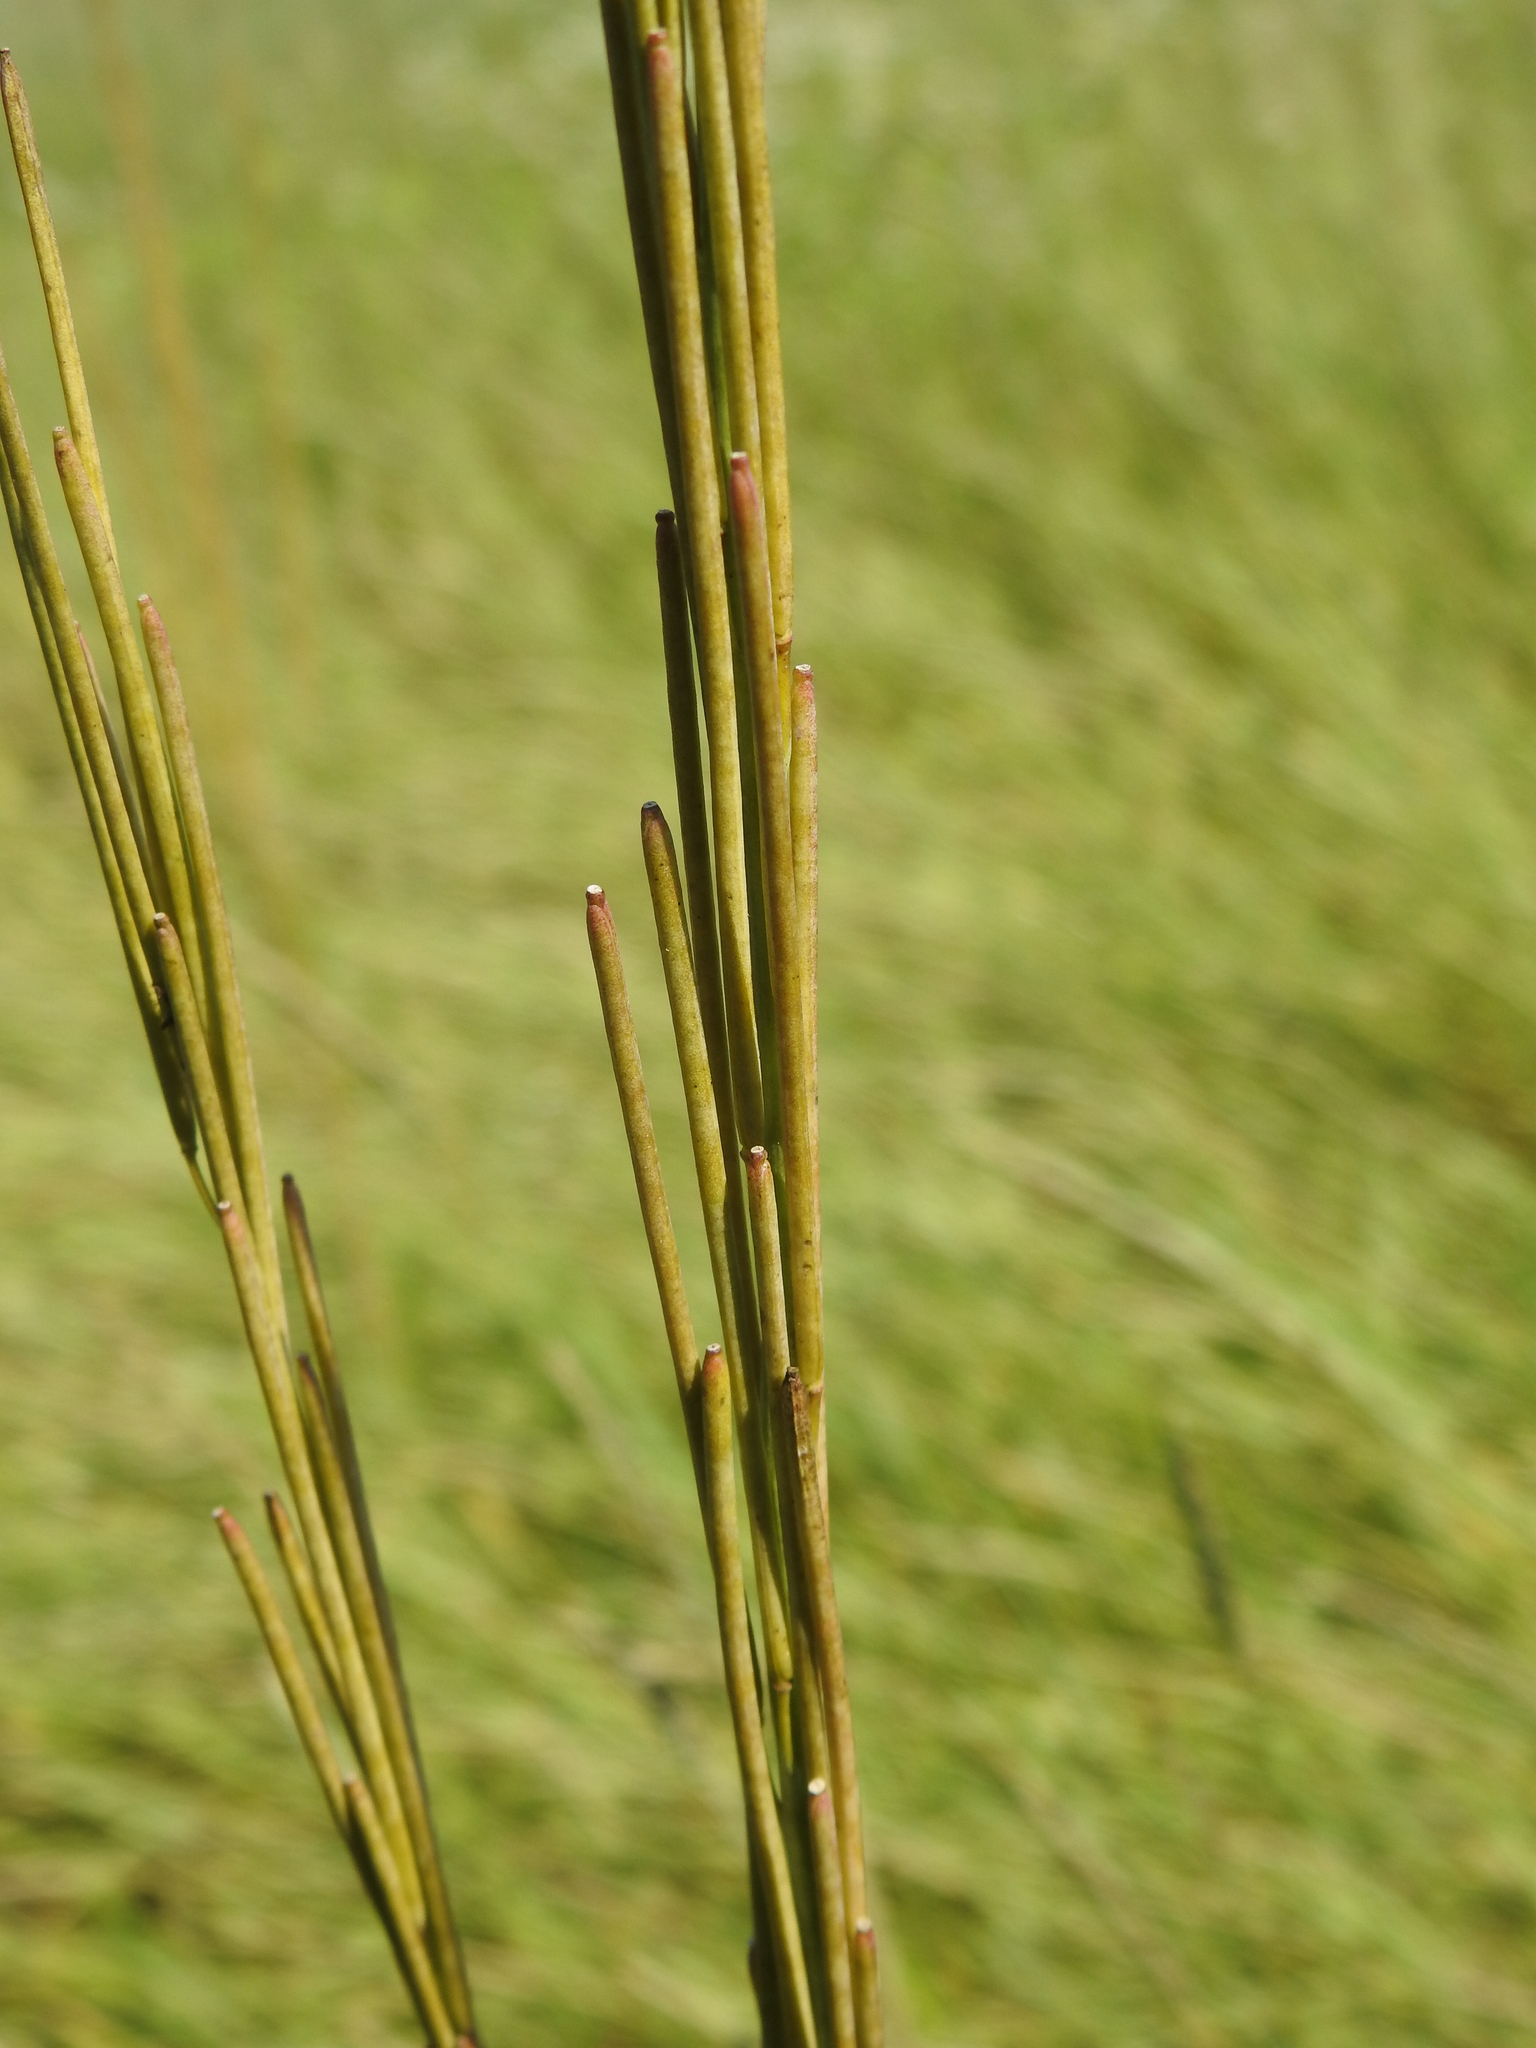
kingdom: Plantae
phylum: Tracheophyta
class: Magnoliopsida
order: Brassicales
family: Brassicaceae
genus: Turritis
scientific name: Turritis glabra
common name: Tower rockcress
